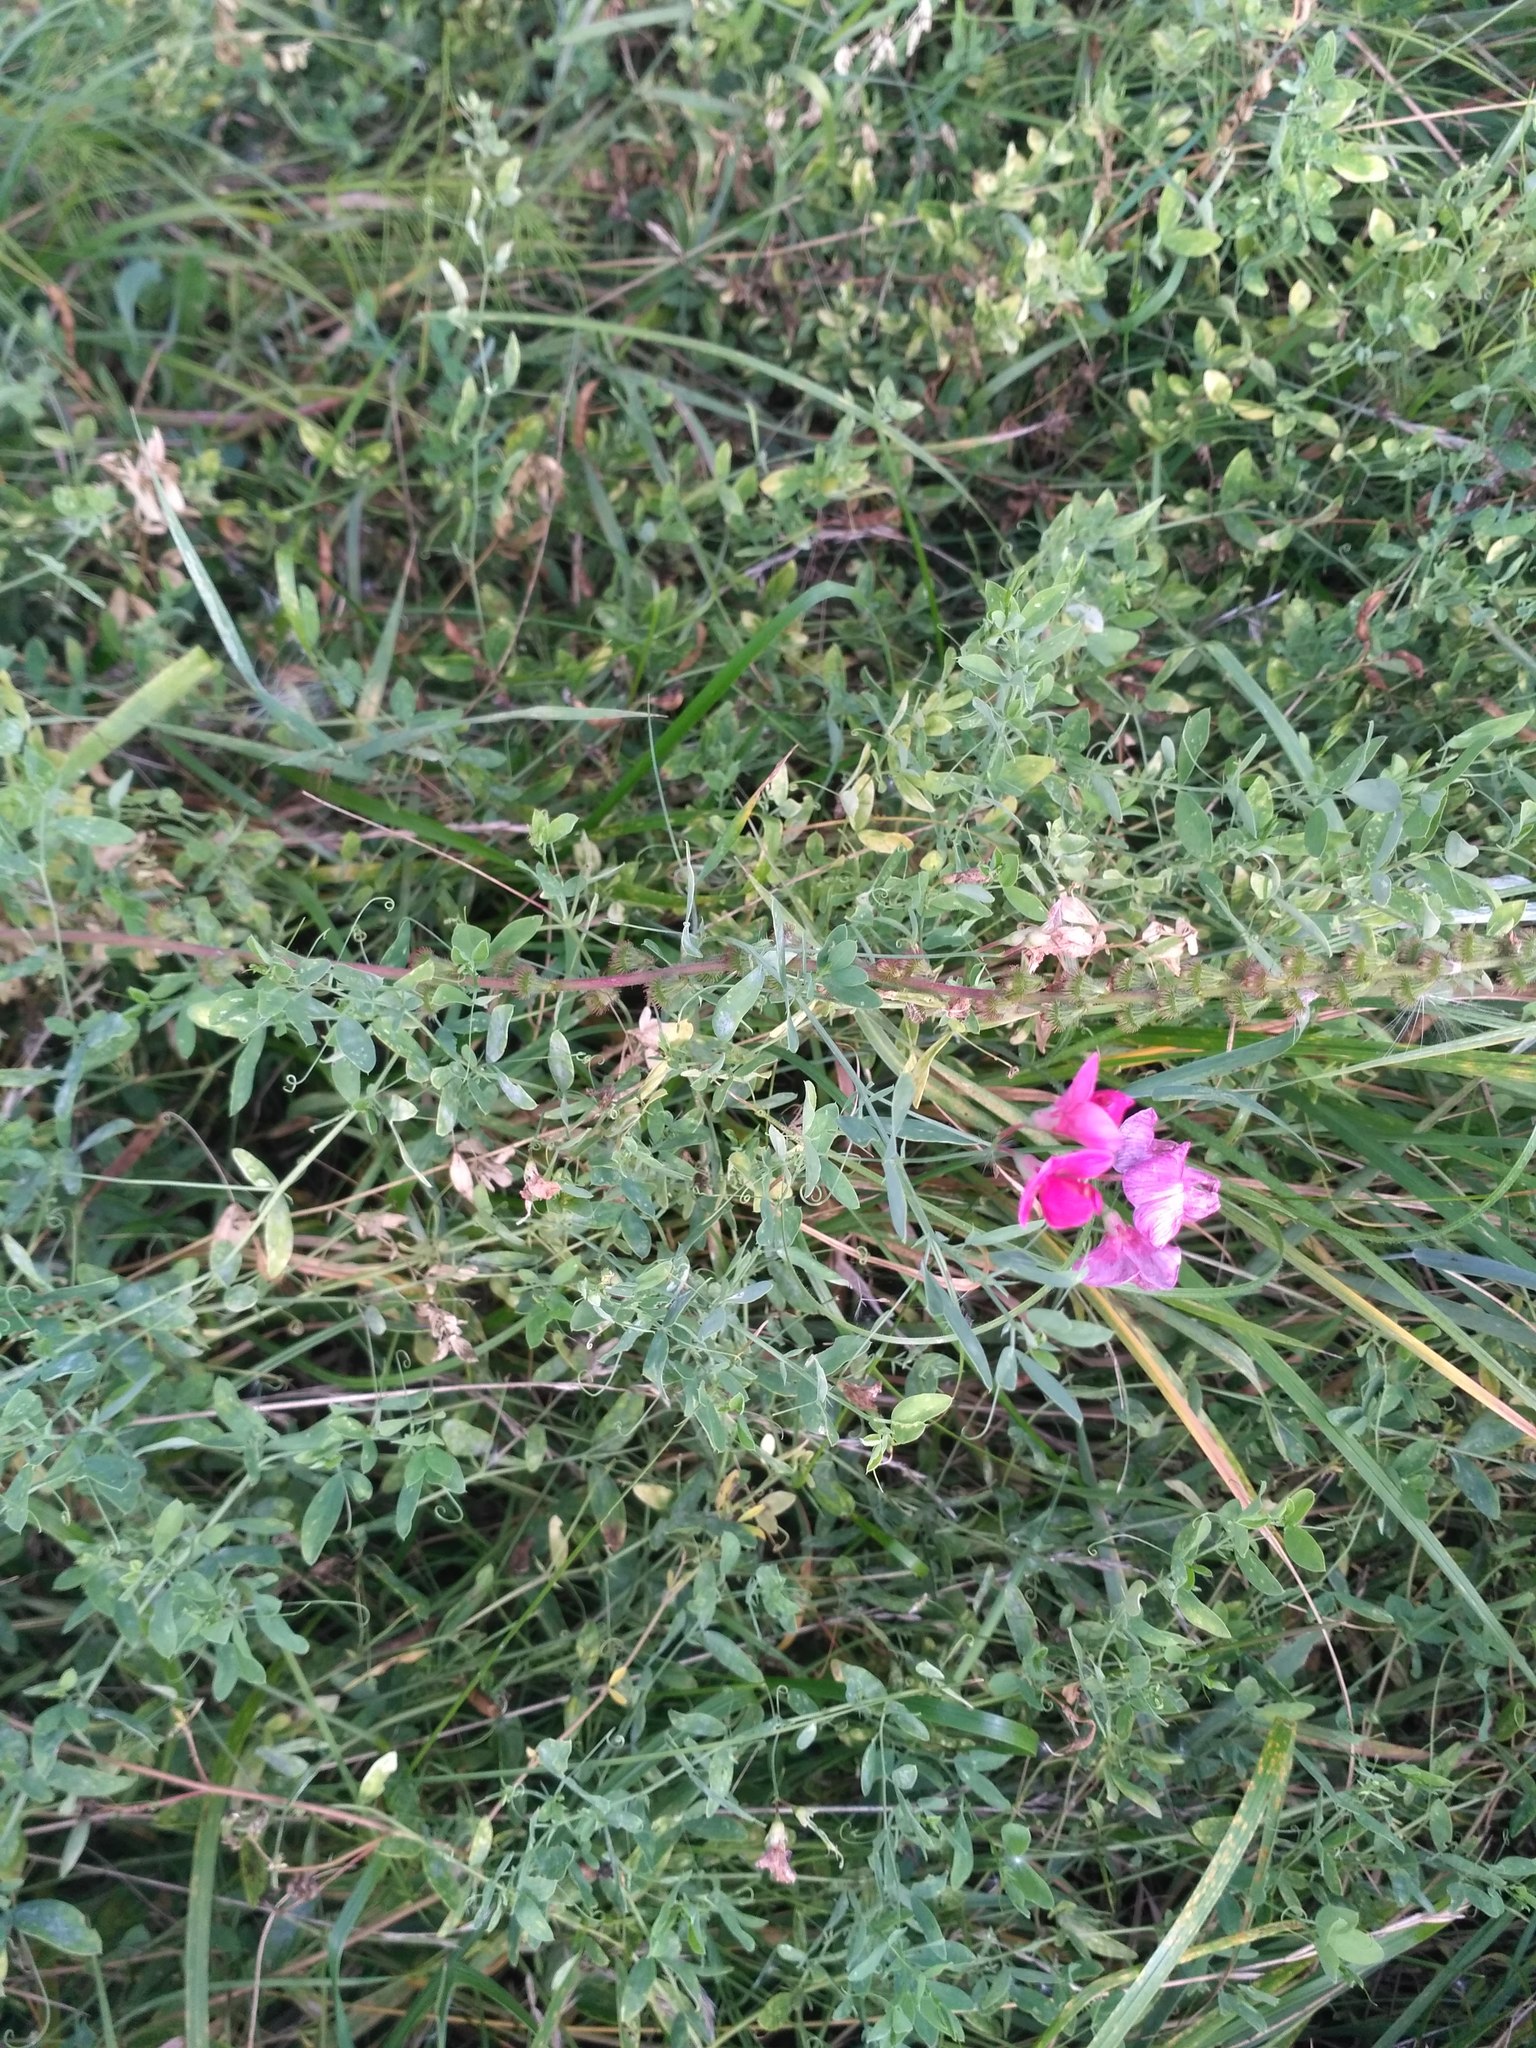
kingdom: Plantae
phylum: Tracheophyta
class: Magnoliopsida
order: Fabales
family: Fabaceae
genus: Lathyrus
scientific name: Lathyrus tuberosus
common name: Tuberous pea
